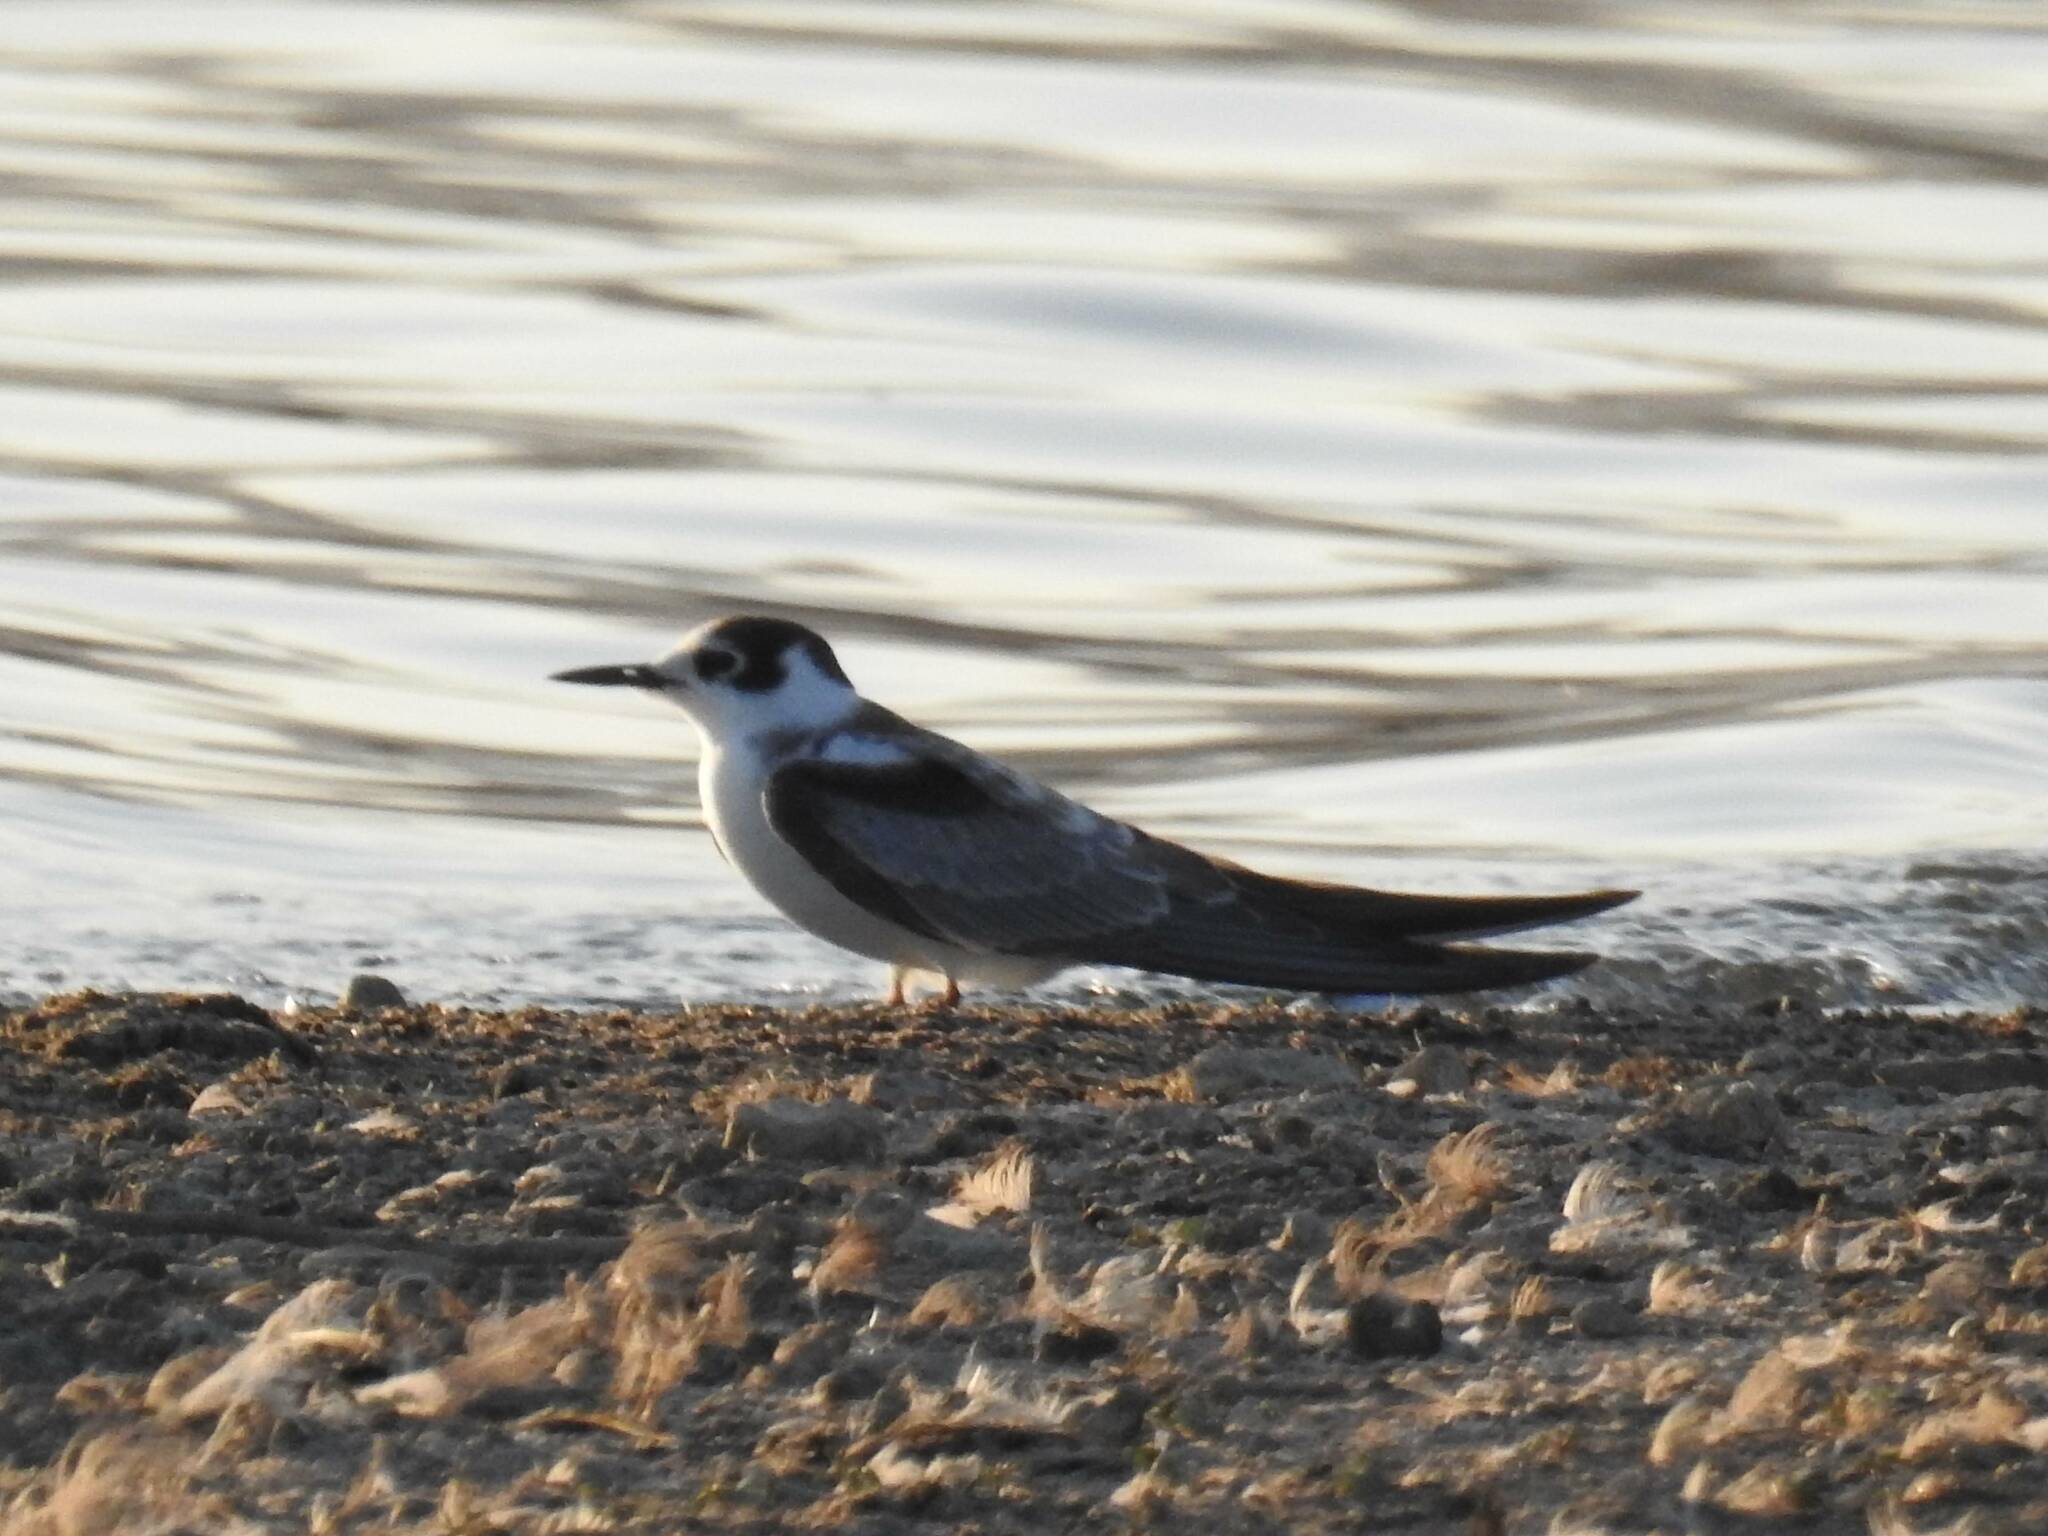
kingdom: Animalia
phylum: Chordata
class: Aves
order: Charadriiformes
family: Laridae
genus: Chlidonias
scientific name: Chlidonias niger
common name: Black tern
